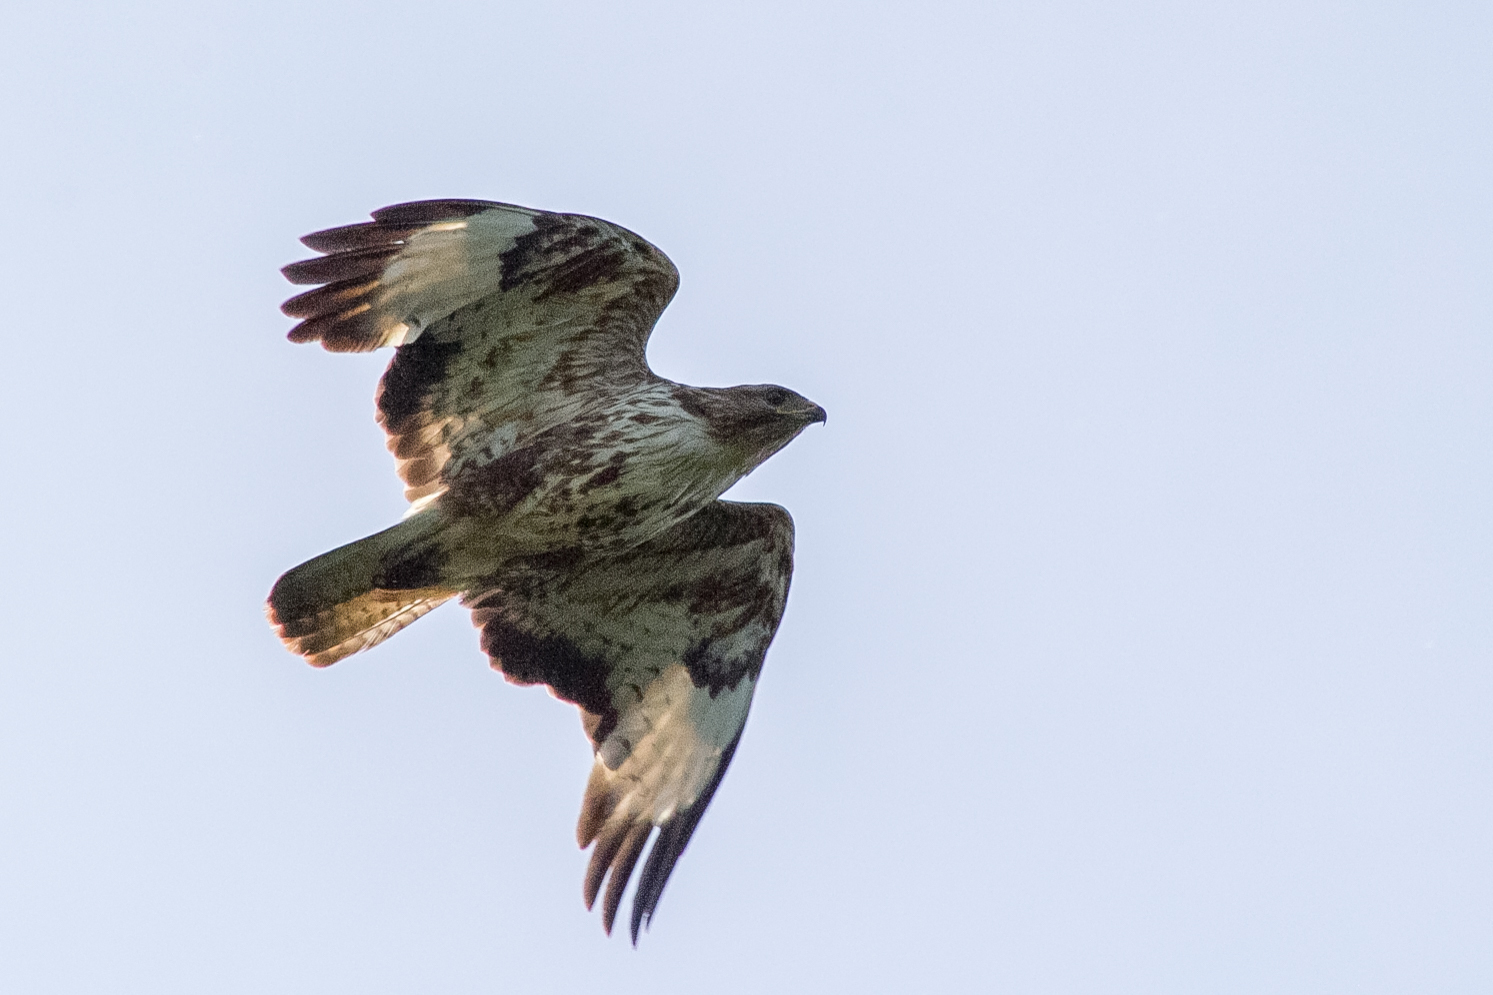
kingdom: Animalia
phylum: Chordata
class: Aves
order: Accipitriformes
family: Accipitridae
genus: Buteo
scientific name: Buteo buteo
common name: Common buzzard
